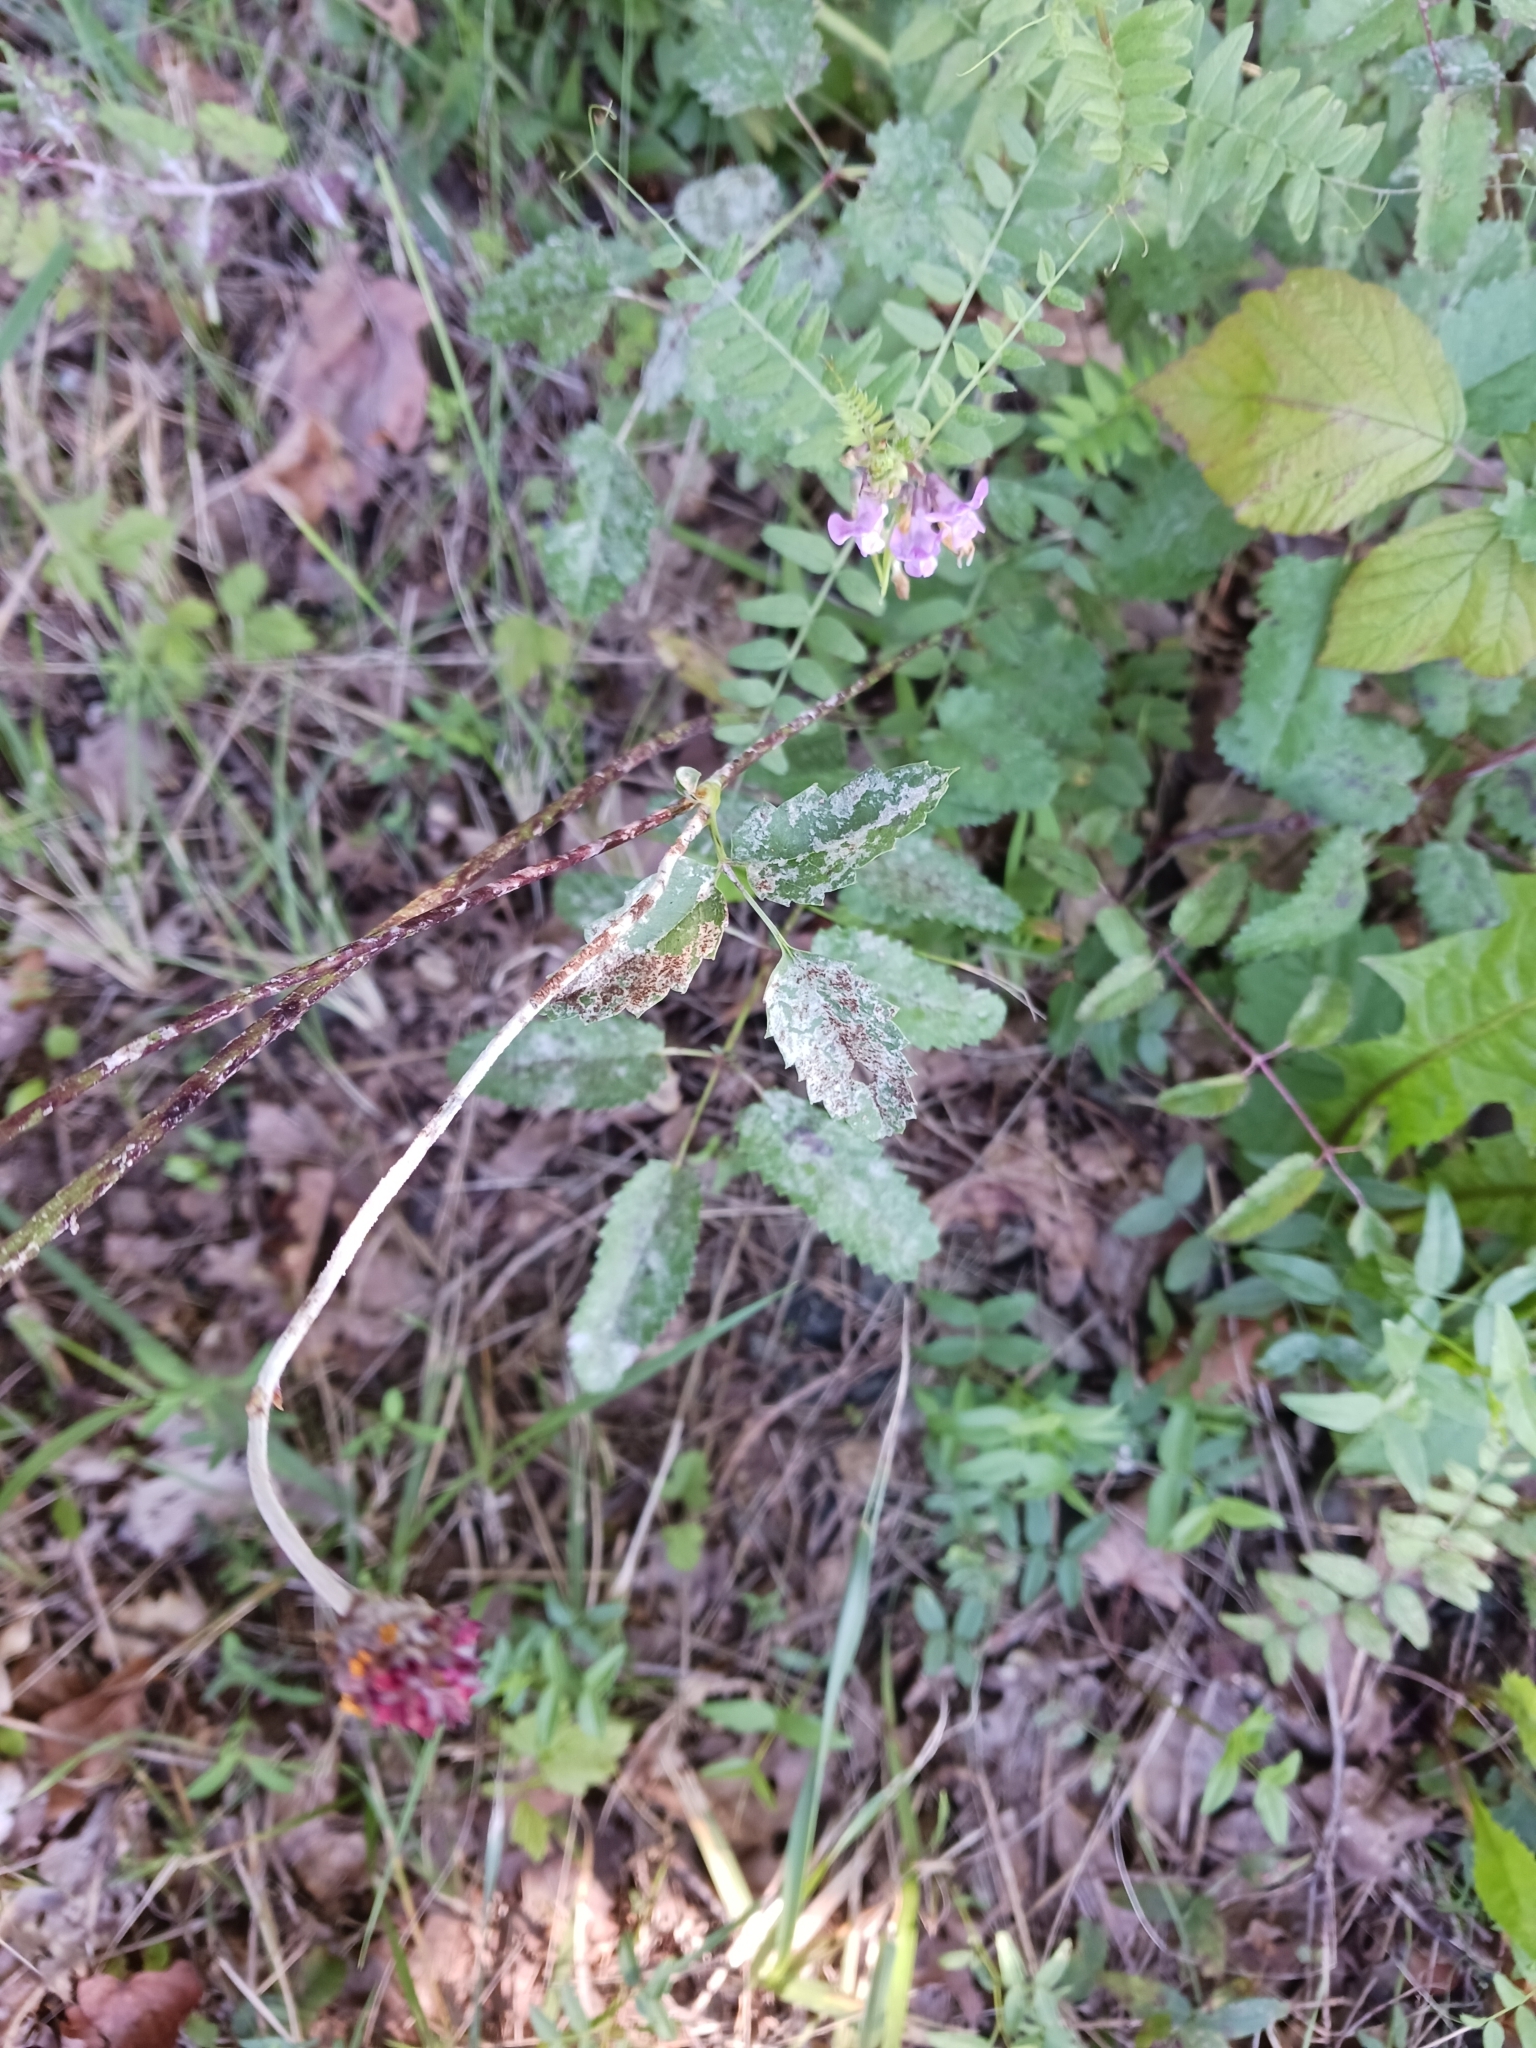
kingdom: Fungi
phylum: Ascomycota
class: Leotiomycetes
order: Helotiales
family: Erysiphaceae
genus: Podosphaera
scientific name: Podosphaera ferruginea
